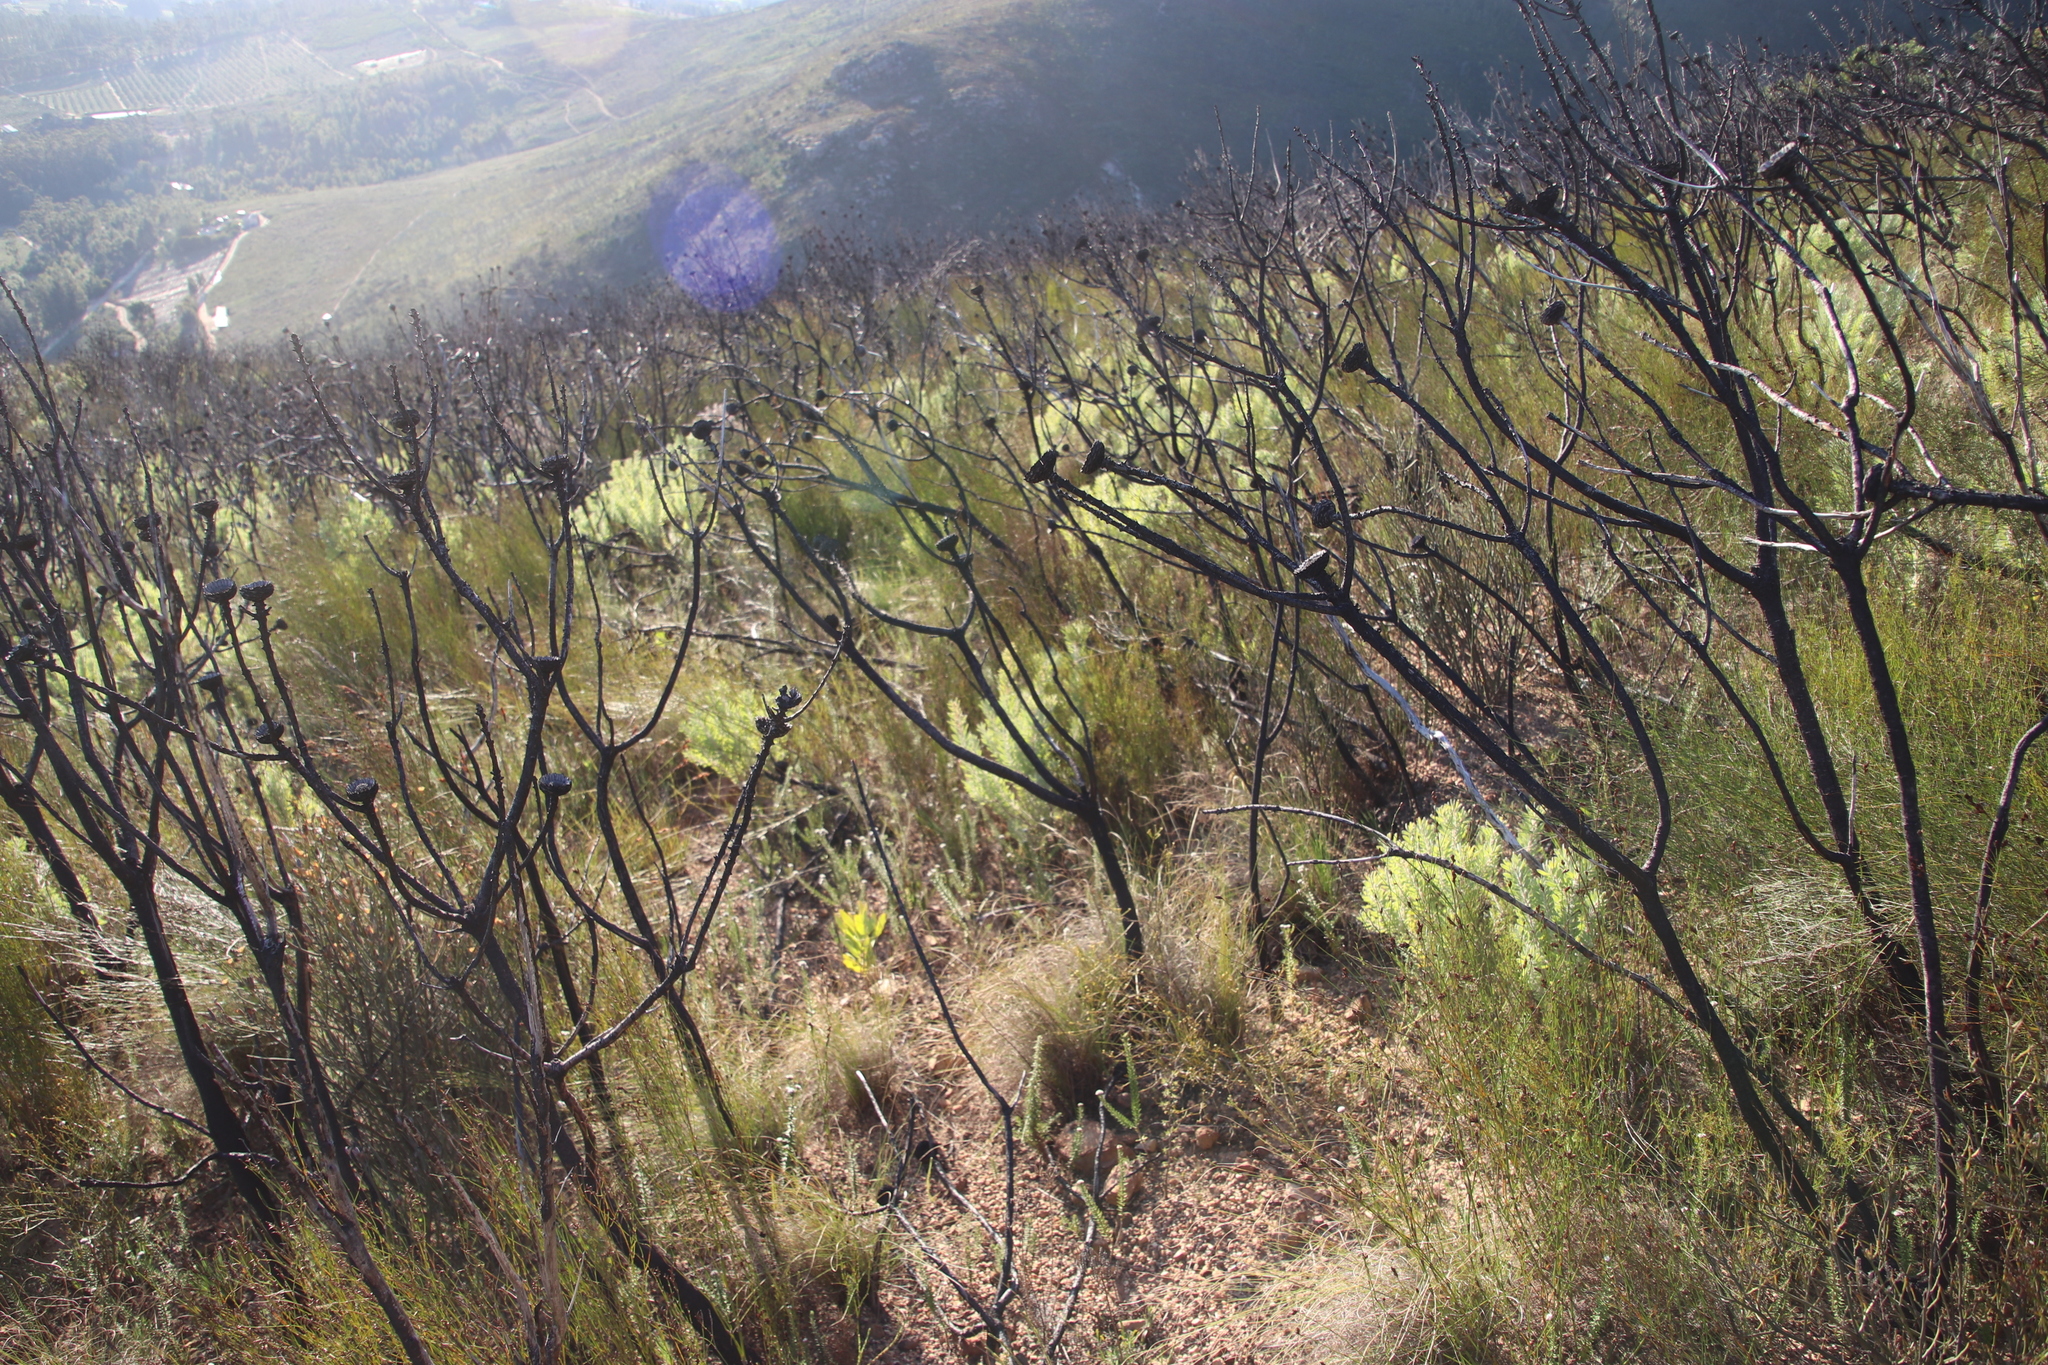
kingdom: Plantae
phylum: Tracheophyta
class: Magnoliopsida
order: Proteales
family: Proteaceae
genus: Protea
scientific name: Protea laurifolia
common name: Grey-leaf sugarbsh
